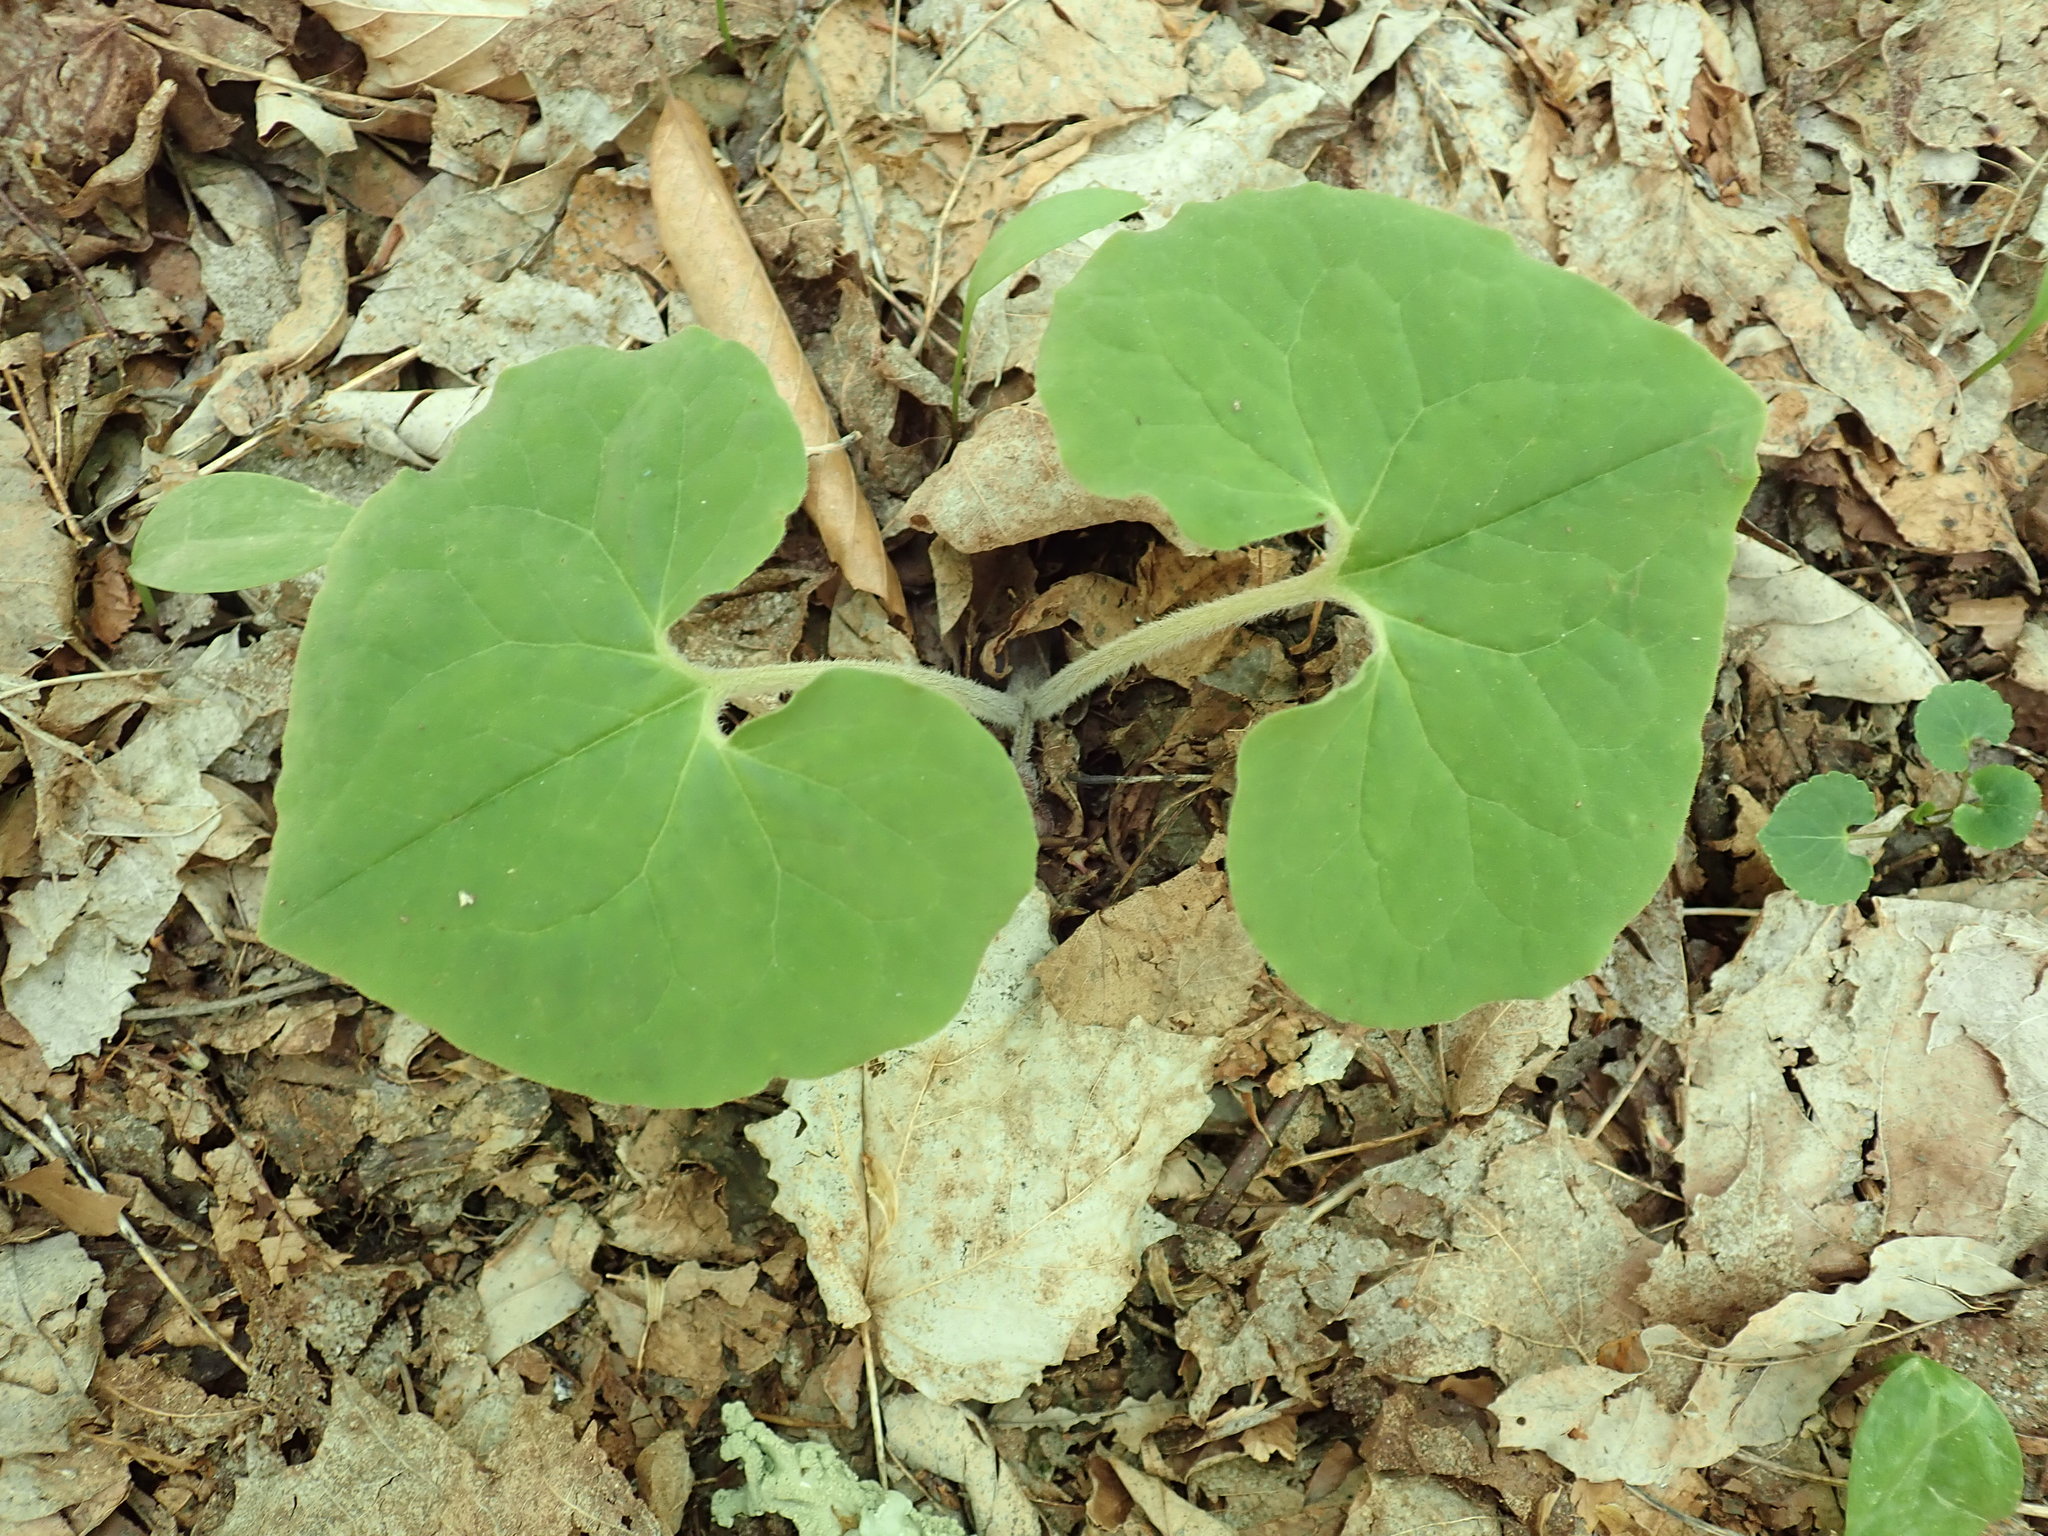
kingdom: Plantae
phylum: Tracheophyta
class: Magnoliopsida
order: Piperales
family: Aristolochiaceae
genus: Asarum
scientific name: Asarum canadense
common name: Wild ginger
